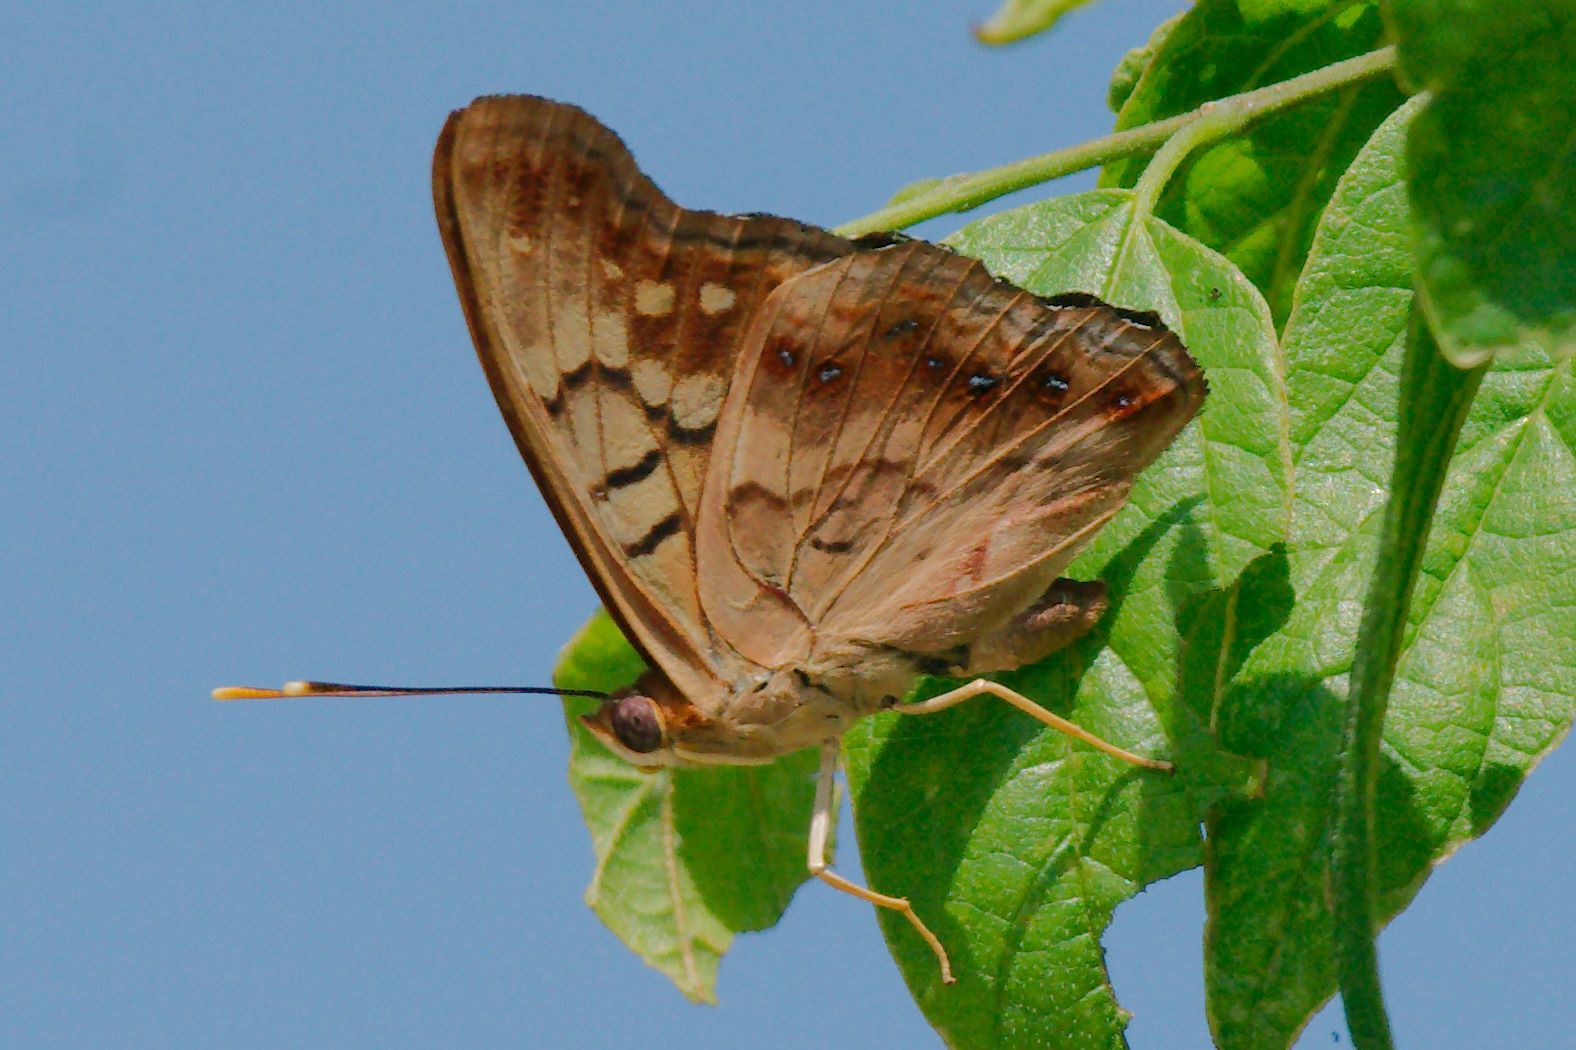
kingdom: Animalia
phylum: Arthropoda
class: Insecta
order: Lepidoptera
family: Nymphalidae
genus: Asterocampa
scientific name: Asterocampa clyton
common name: Tawny emperor
